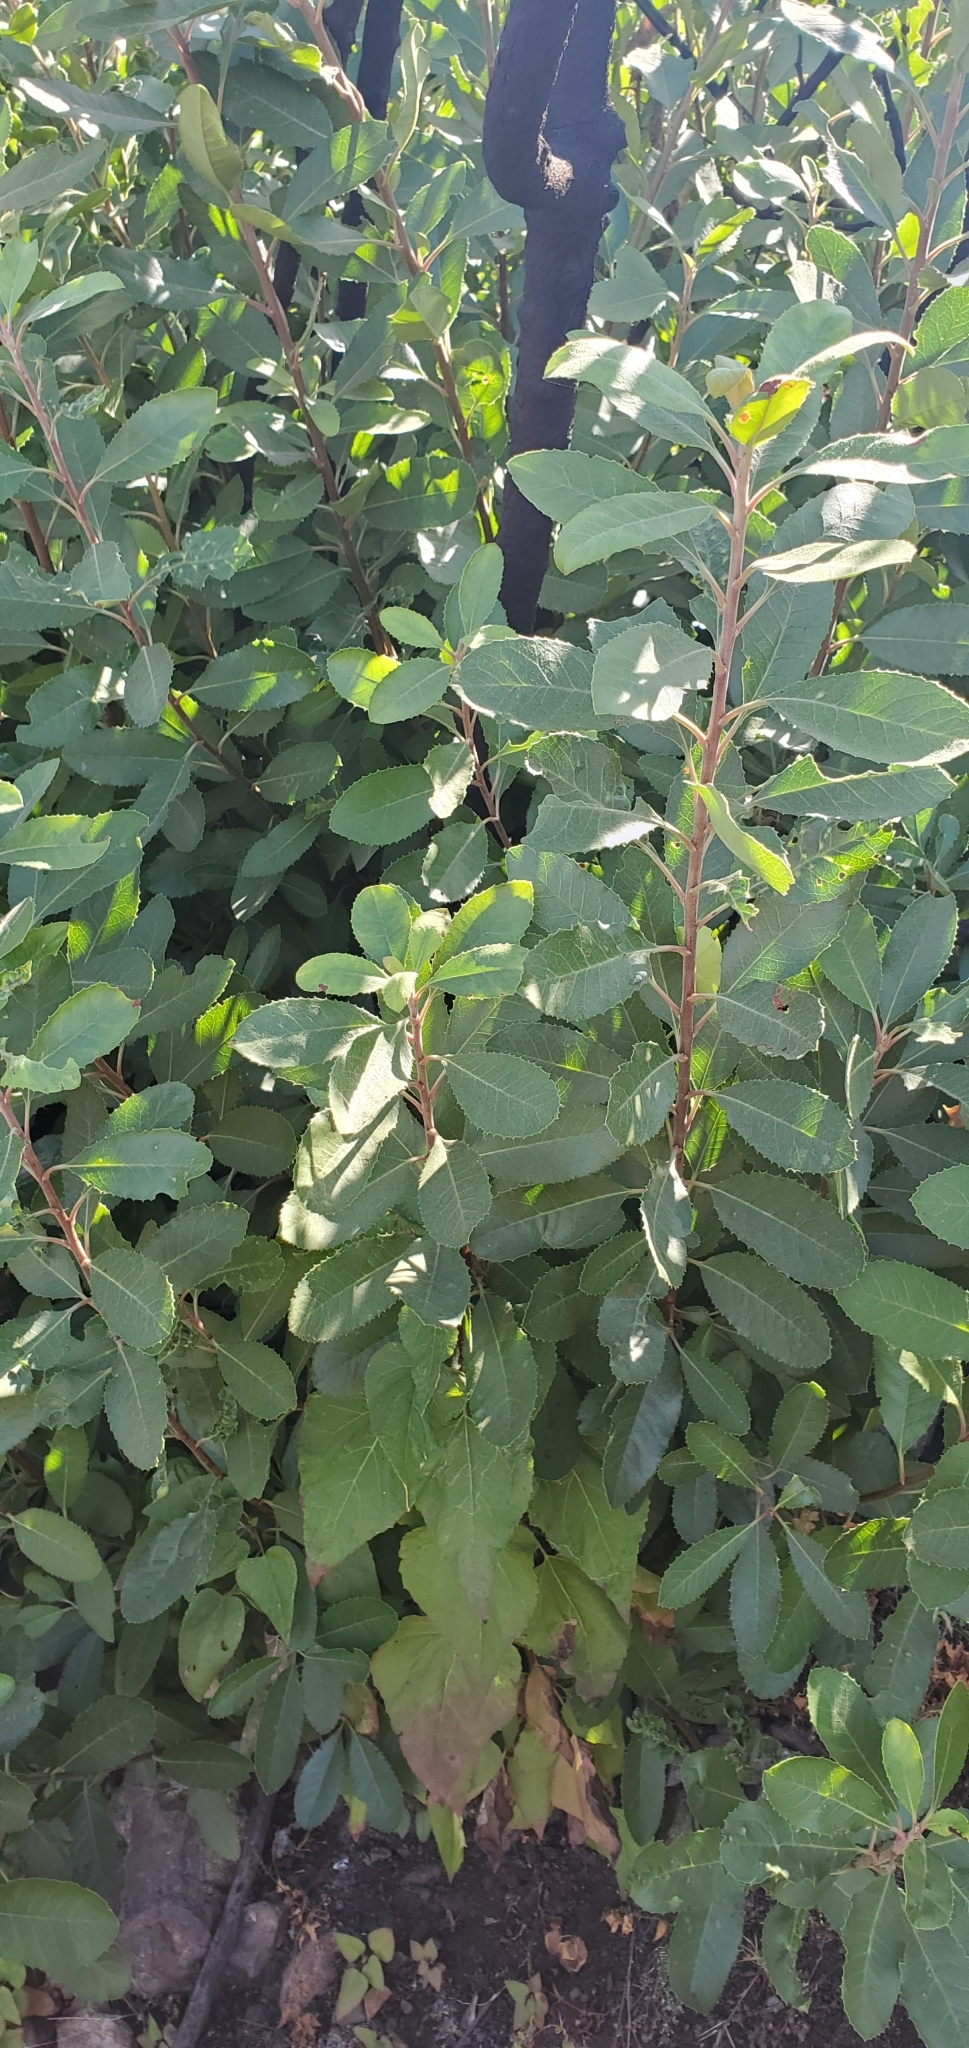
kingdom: Plantae
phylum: Tracheophyta
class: Magnoliopsida
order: Rosales
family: Rosaceae
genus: Heteromeles
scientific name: Heteromeles arbutifolia
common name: California-holly
